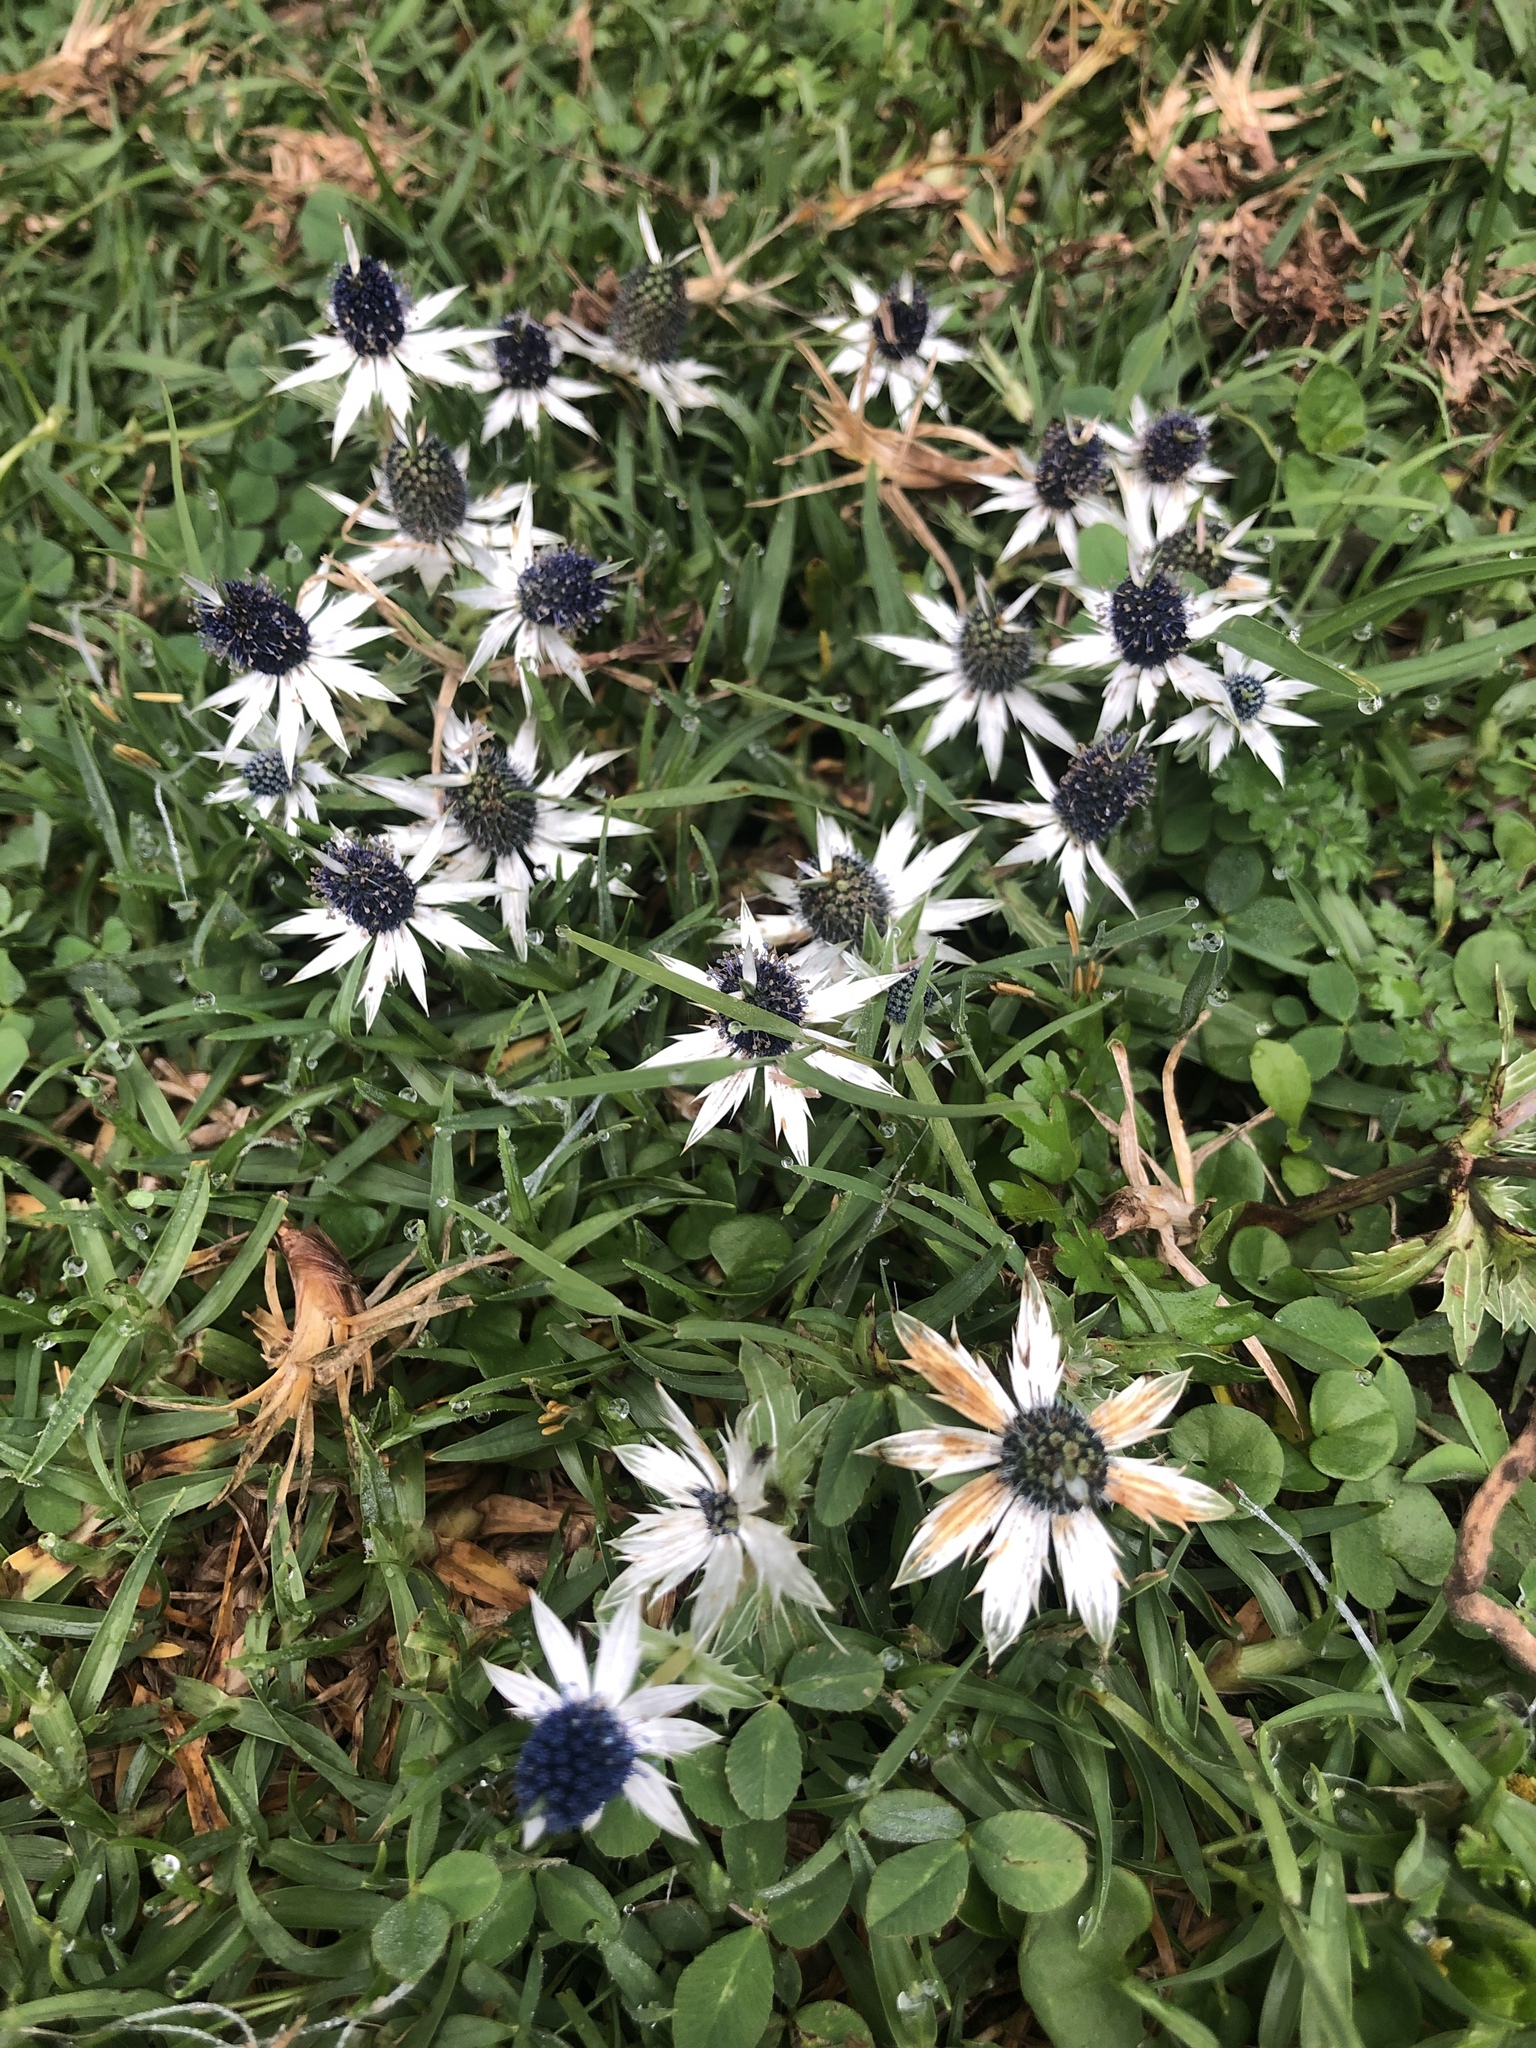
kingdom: Plantae
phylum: Tracheophyta
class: Magnoliopsida
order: Apiales
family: Apiaceae
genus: Eryngium
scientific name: Eryngium carlinae
